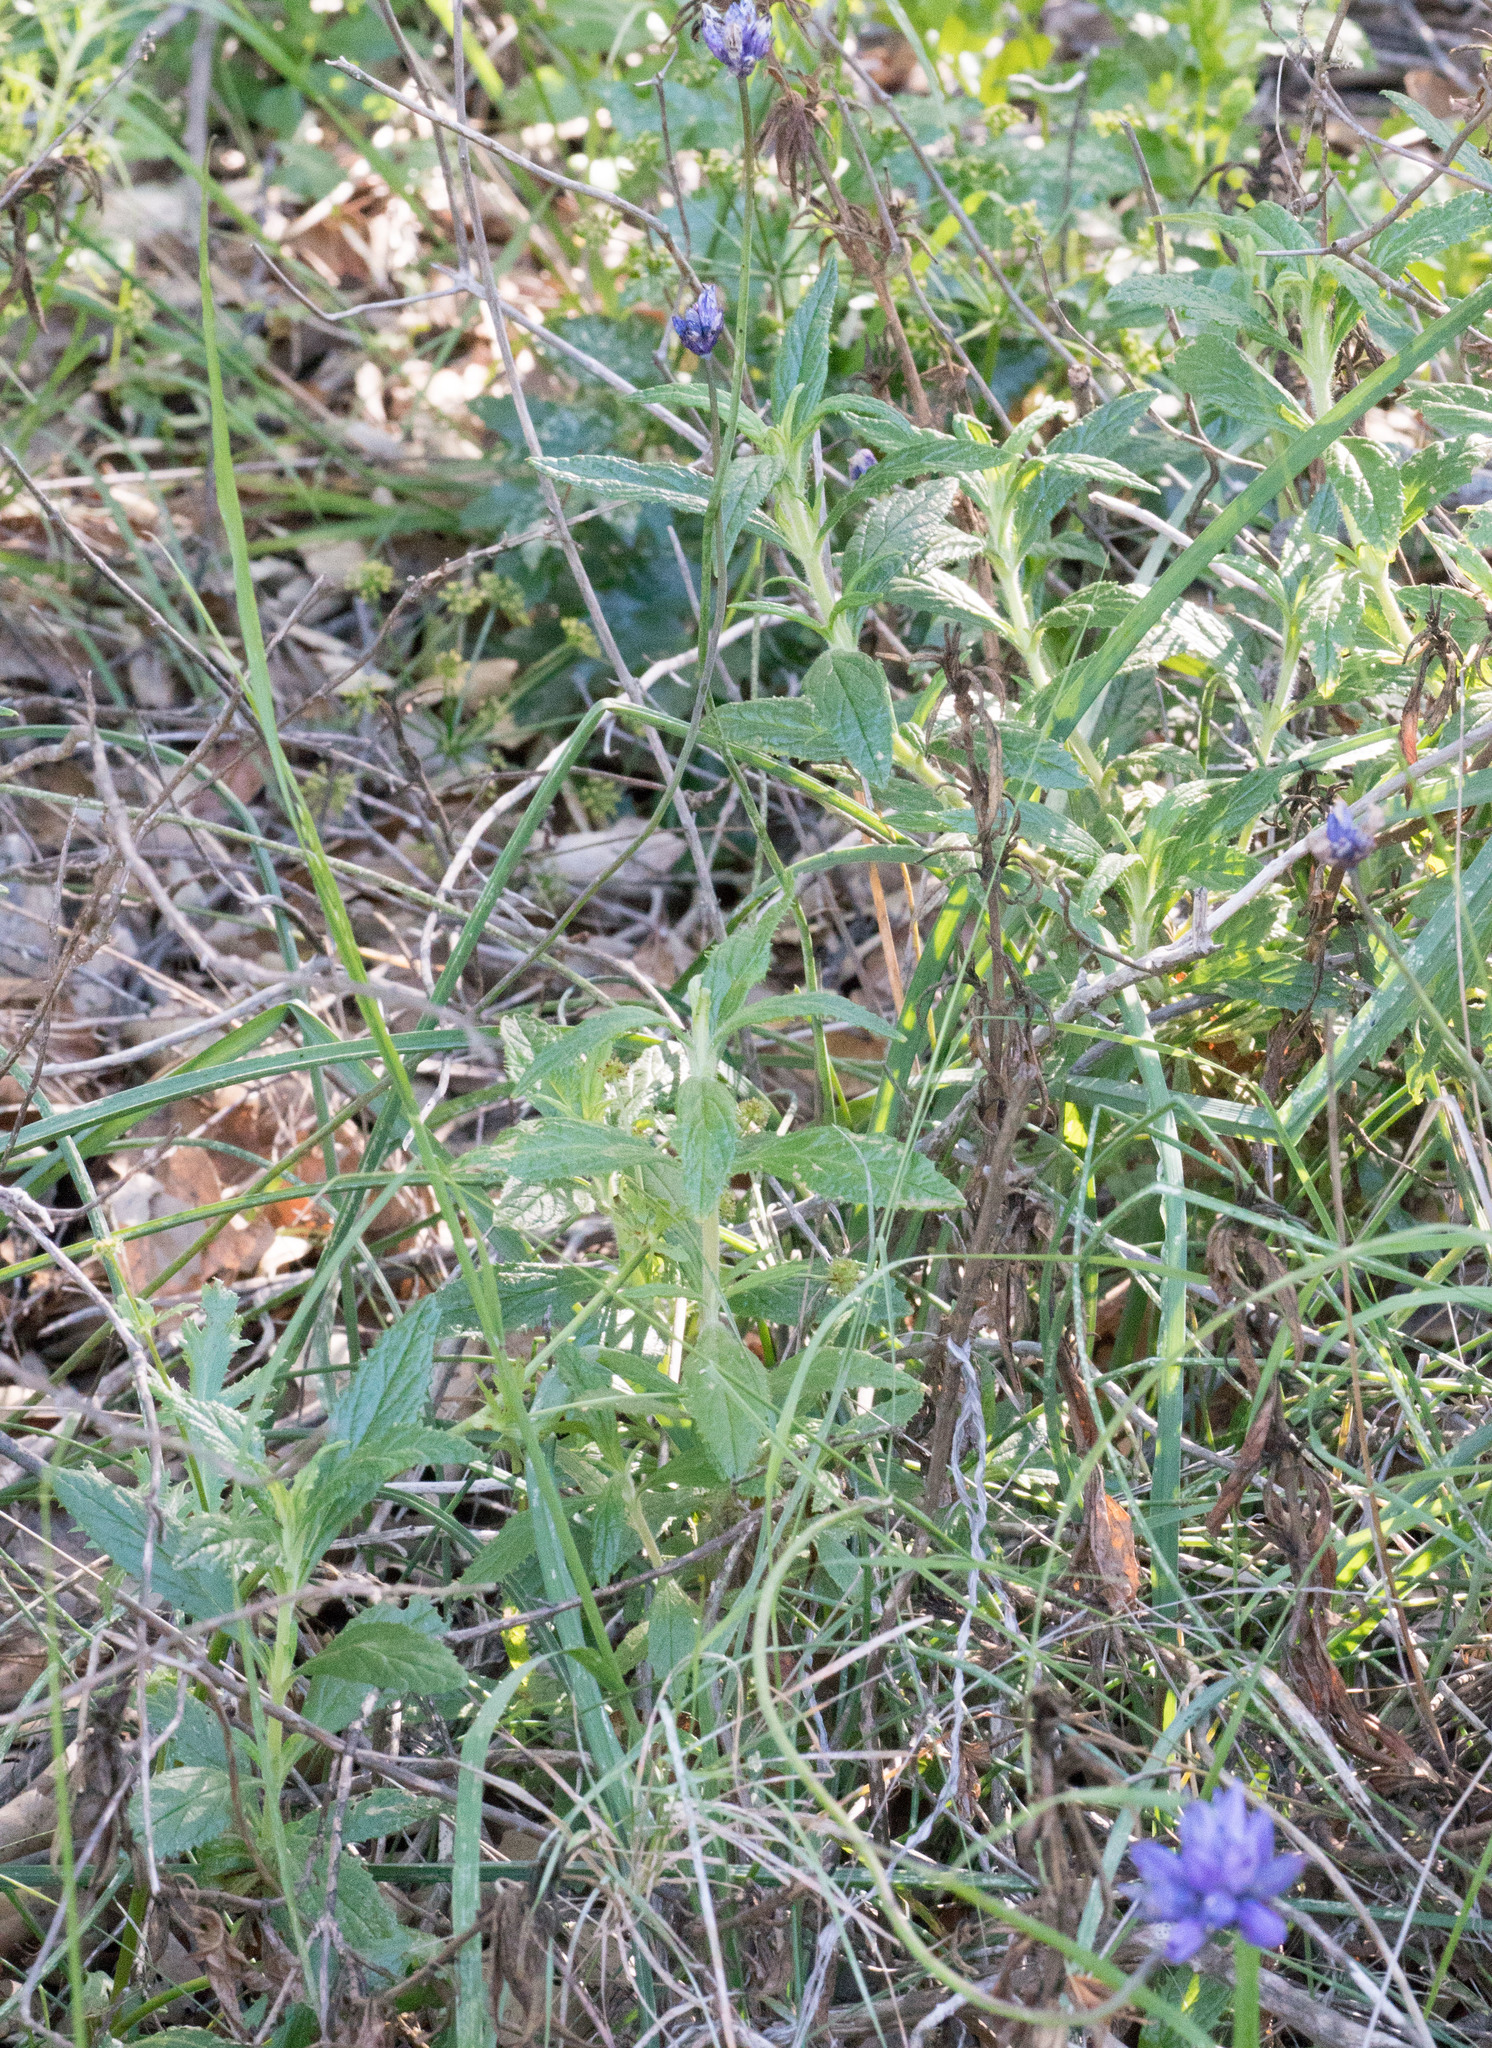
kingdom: Plantae
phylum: Tracheophyta
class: Liliopsida
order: Asparagales
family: Asparagaceae
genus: Dipterostemon
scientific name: Dipterostemon capitatus
